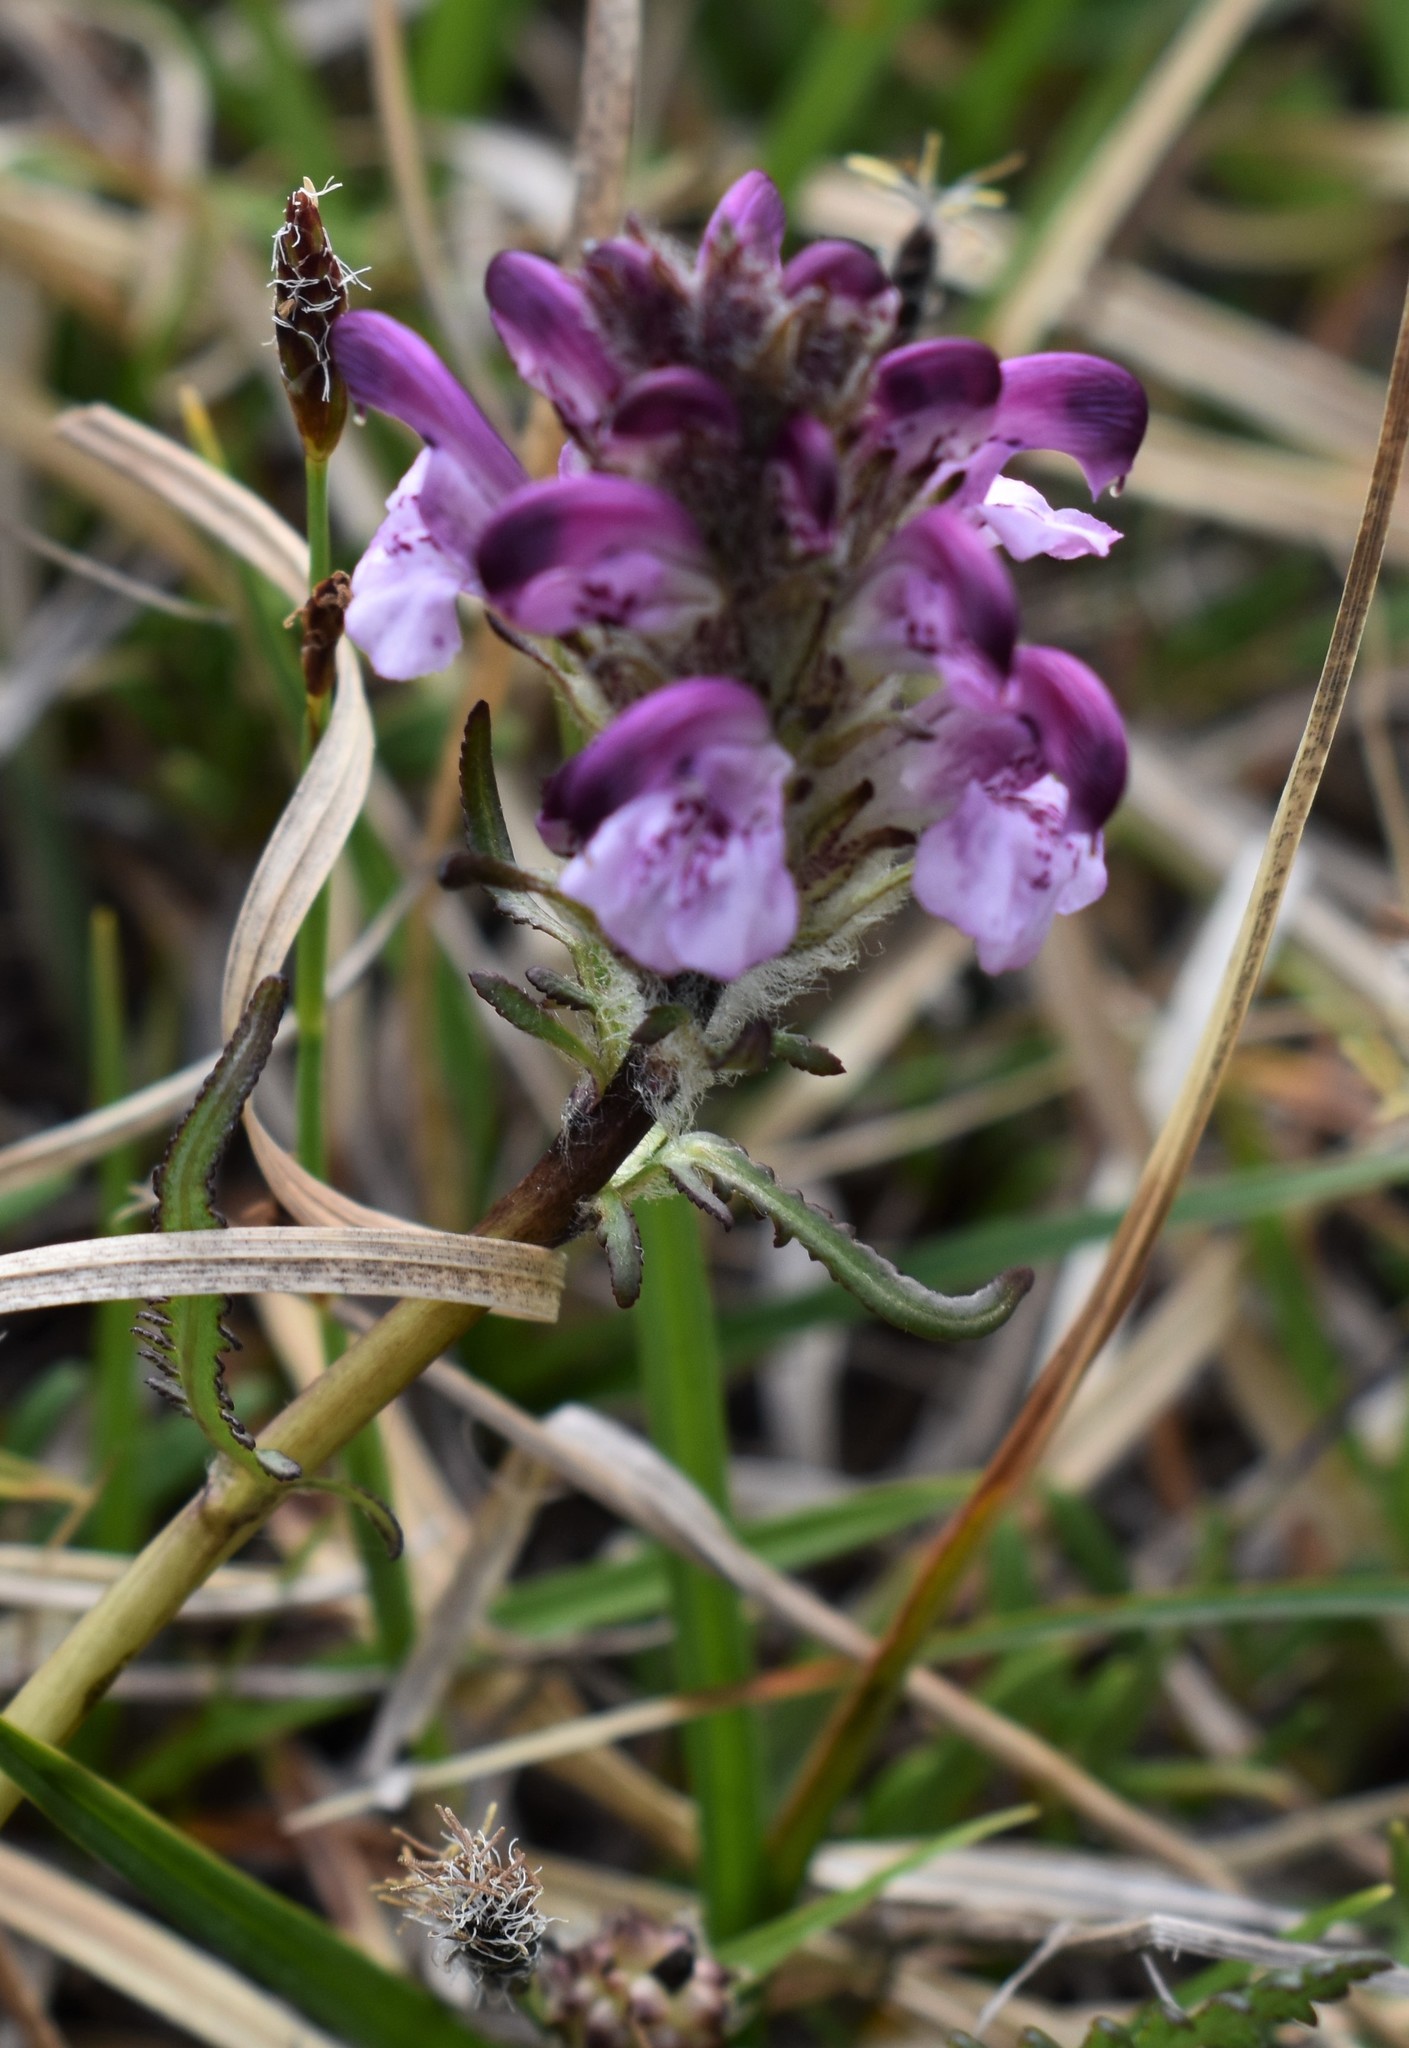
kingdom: Plantae
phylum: Tracheophyta
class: Magnoliopsida
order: Lamiales
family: Orobanchaceae
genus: Pedicularis
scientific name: Pedicularis novaiae-zemliae
